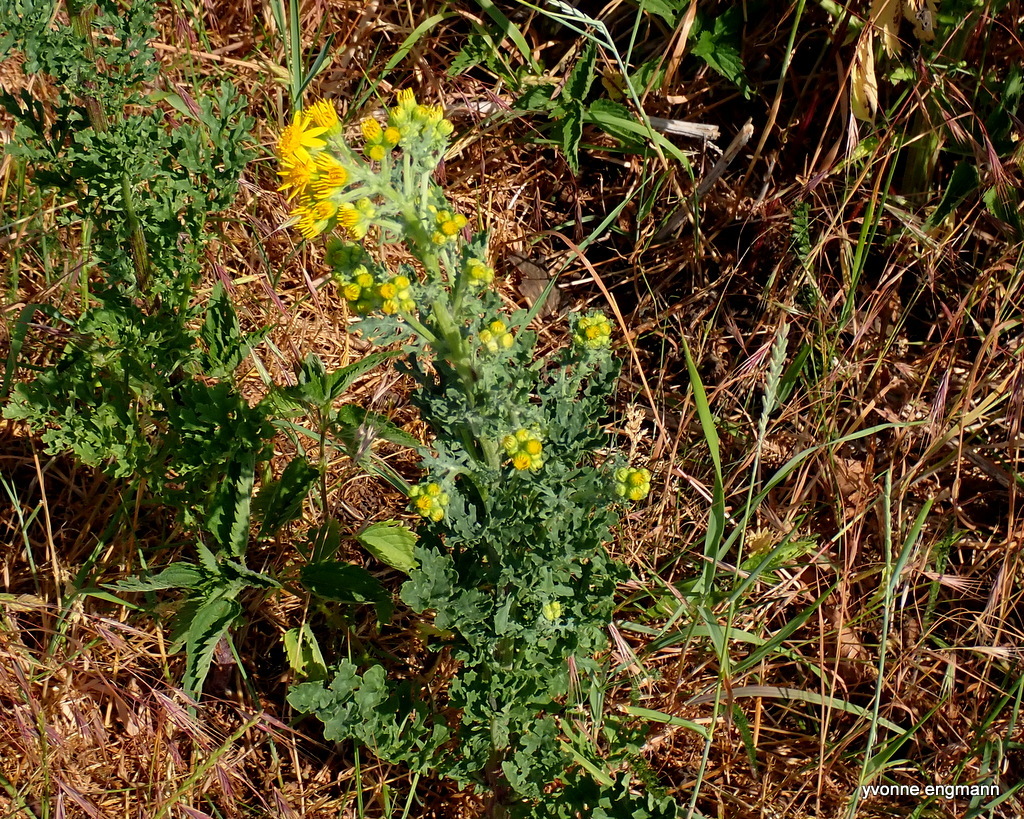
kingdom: Plantae
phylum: Tracheophyta
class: Magnoliopsida
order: Asterales
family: Asteraceae
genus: Jacobaea
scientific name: Jacobaea vulgaris
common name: Stinking willie
